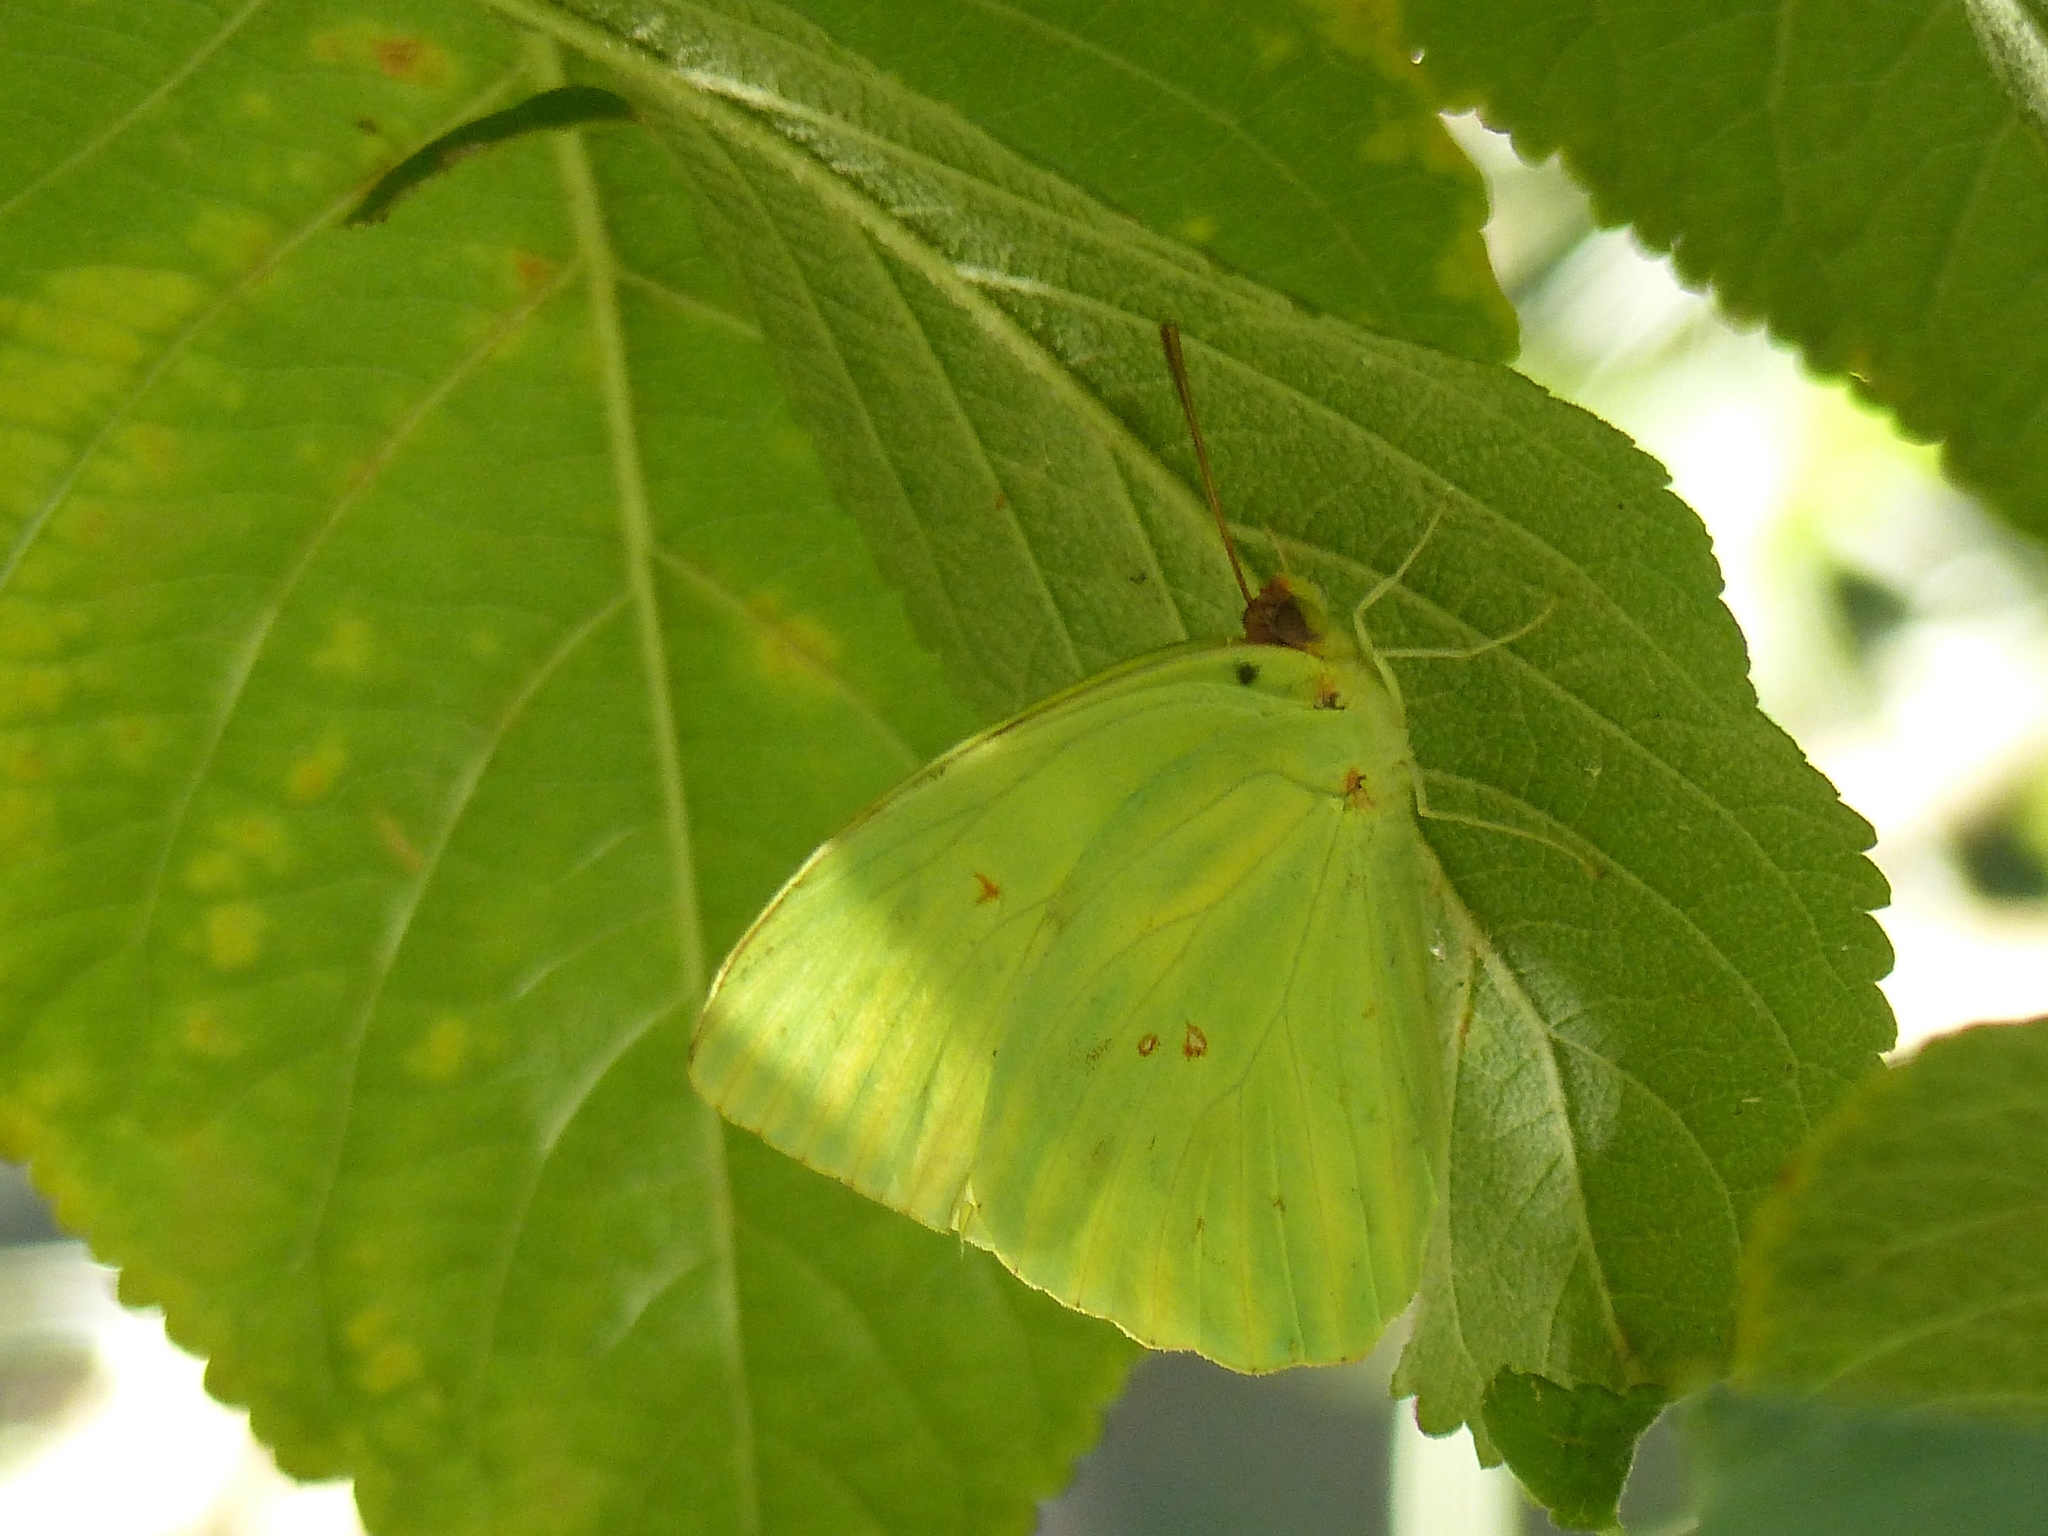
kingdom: Animalia
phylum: Arthropoda
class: Insecta
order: Lepidoptera
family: Pieridae
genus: Phoebis
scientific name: Phoebis sennae
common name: Cloudless sulphur
